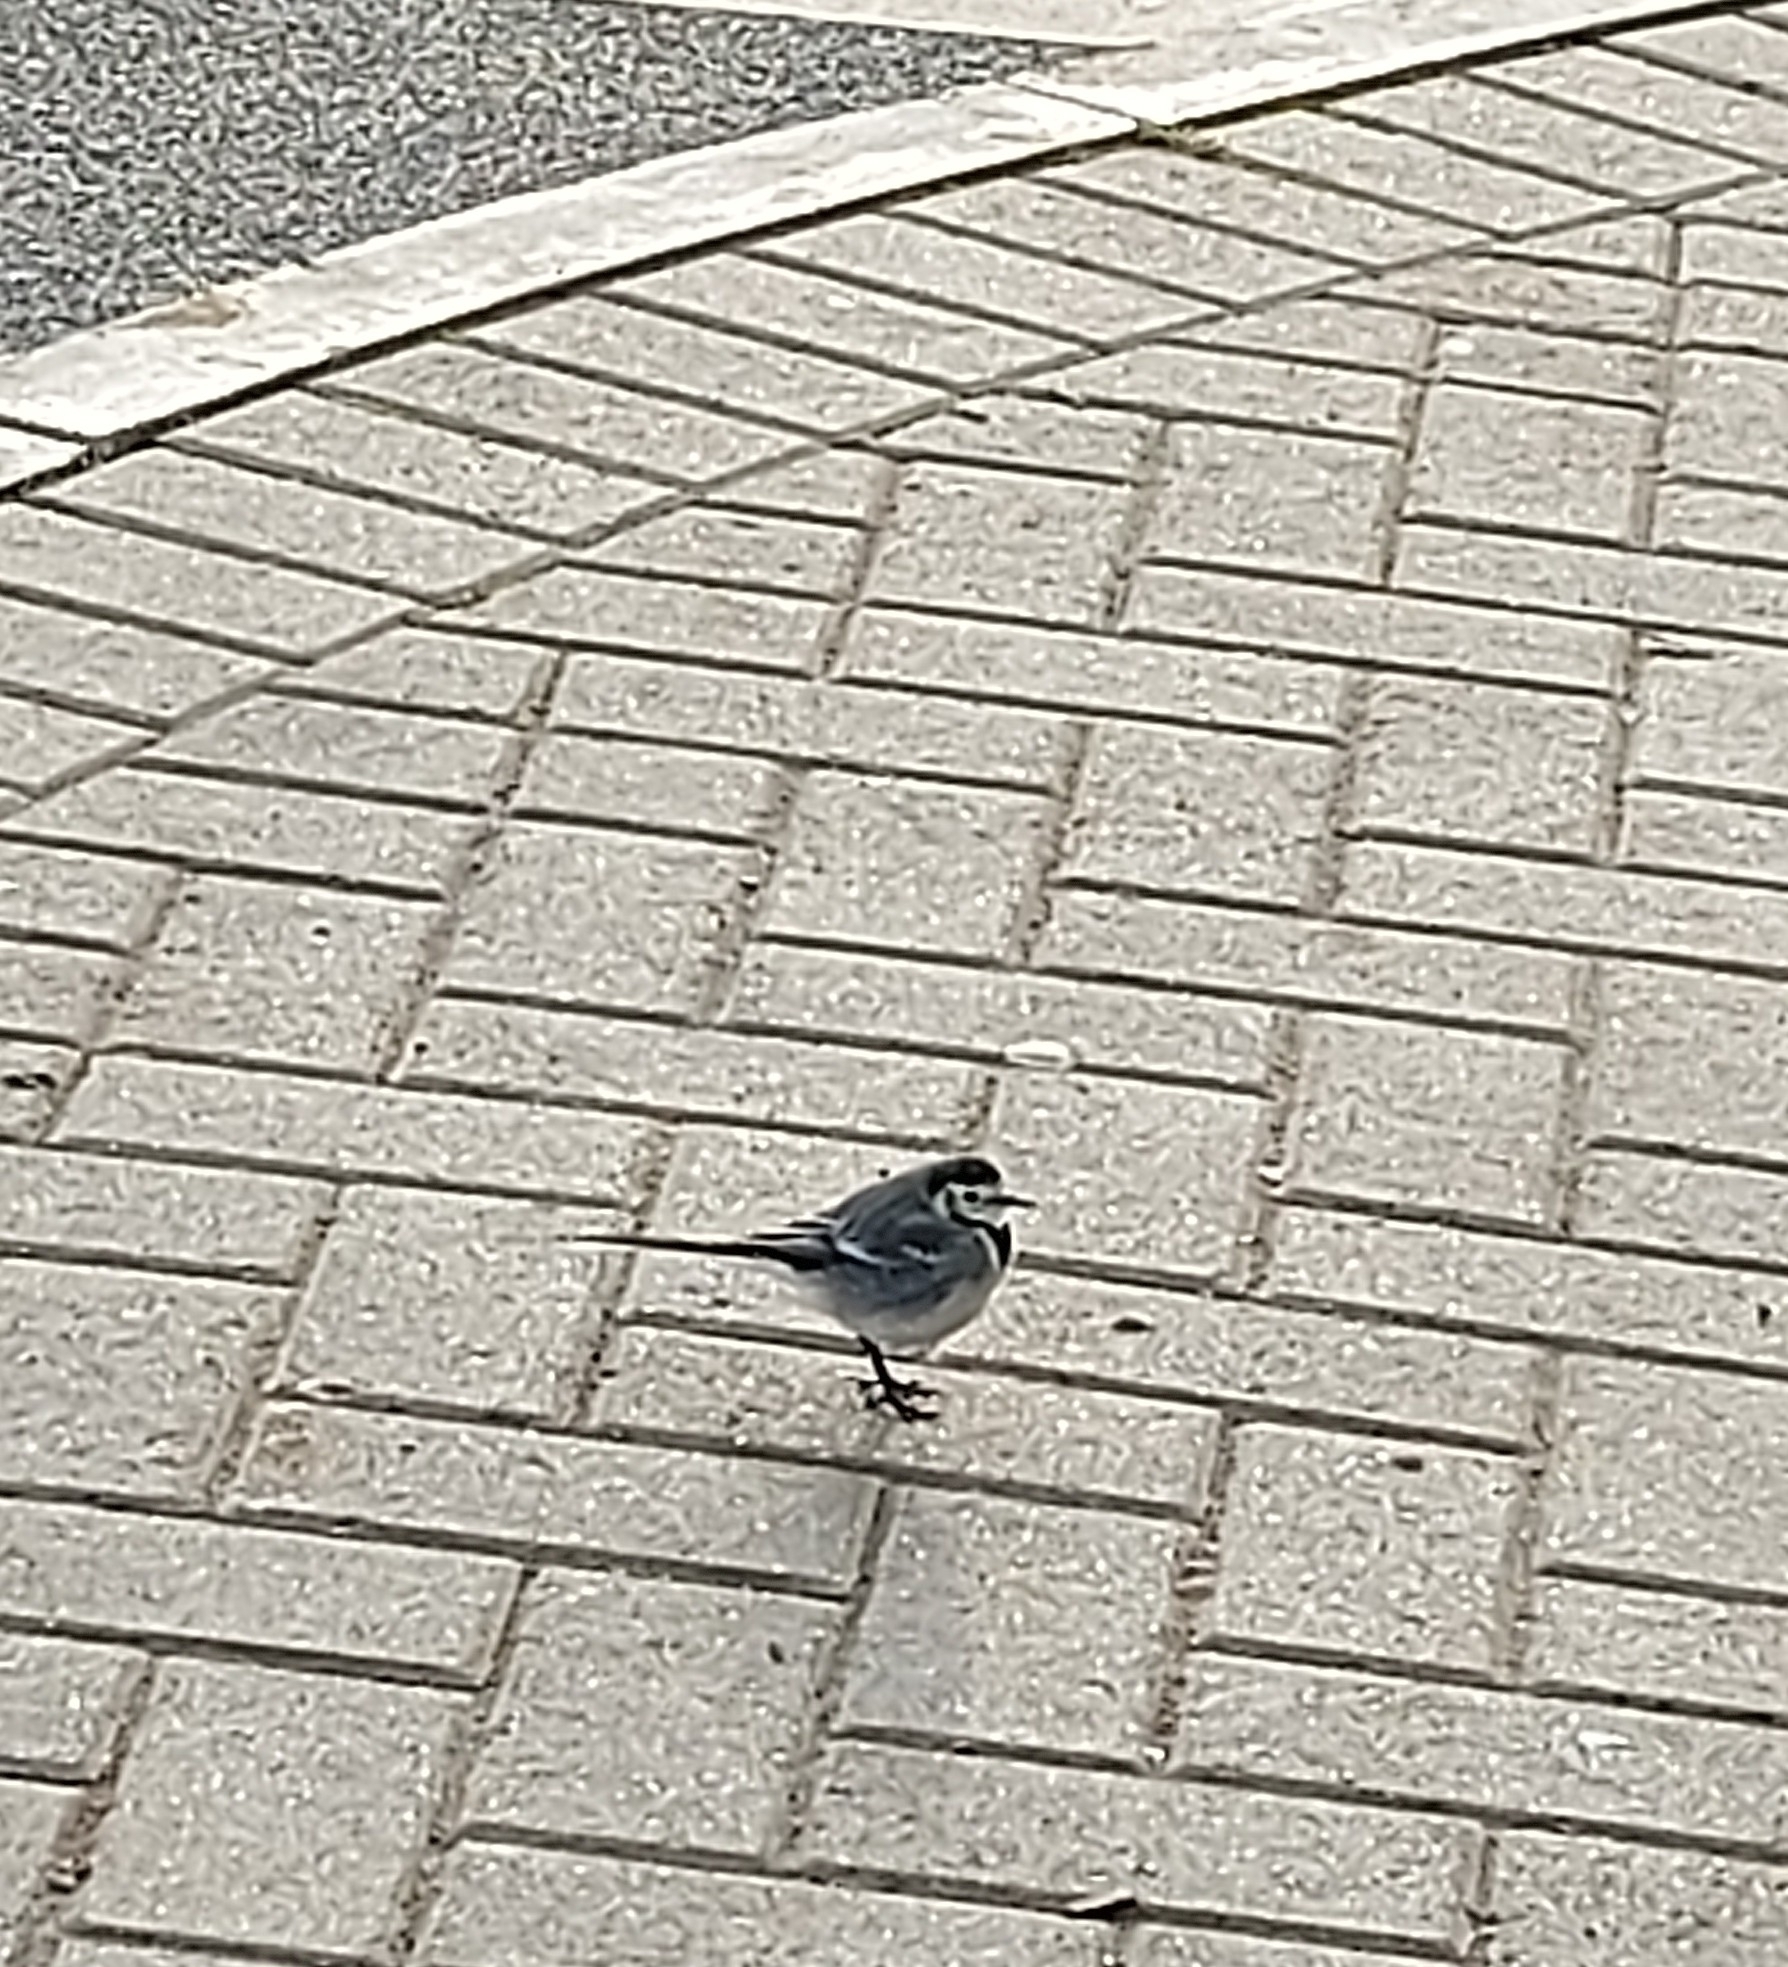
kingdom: Animalia
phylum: Chordata
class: Aves
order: Passeriformes
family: Motacillidae
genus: Motacilla
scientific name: Motacilla alba
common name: White wagtail
